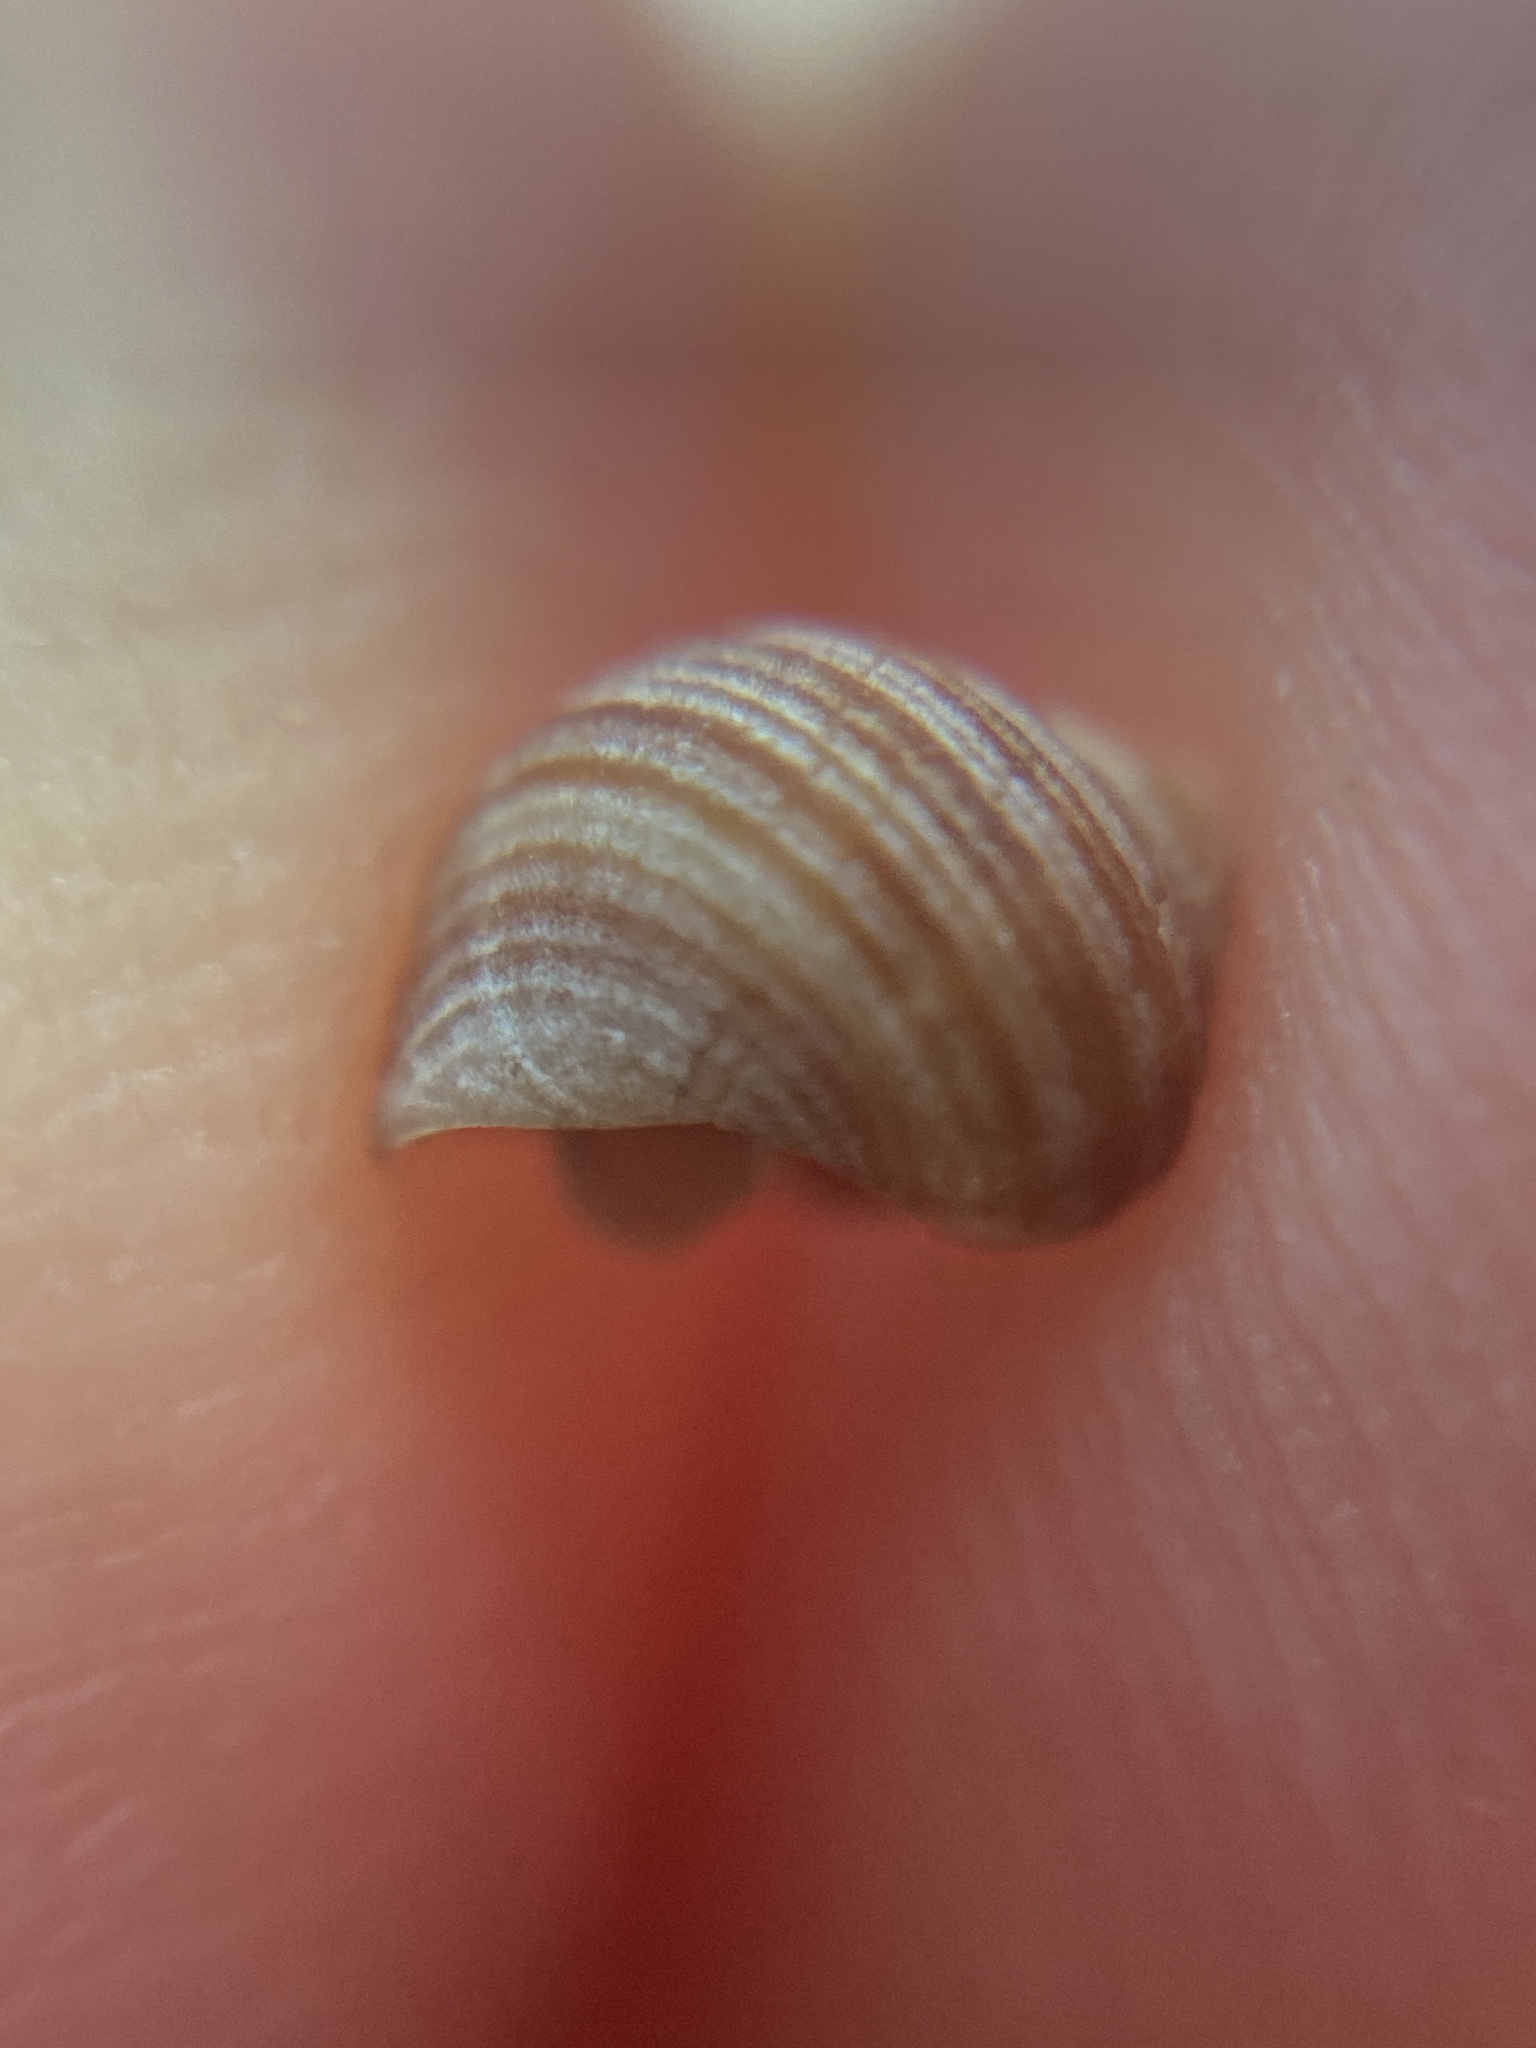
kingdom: Animalia
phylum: Mollusca
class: Gastropoda
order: Littorinimorpha
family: Littorinidae
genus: Littorina
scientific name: Littorina littorea
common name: Common periwinkle
